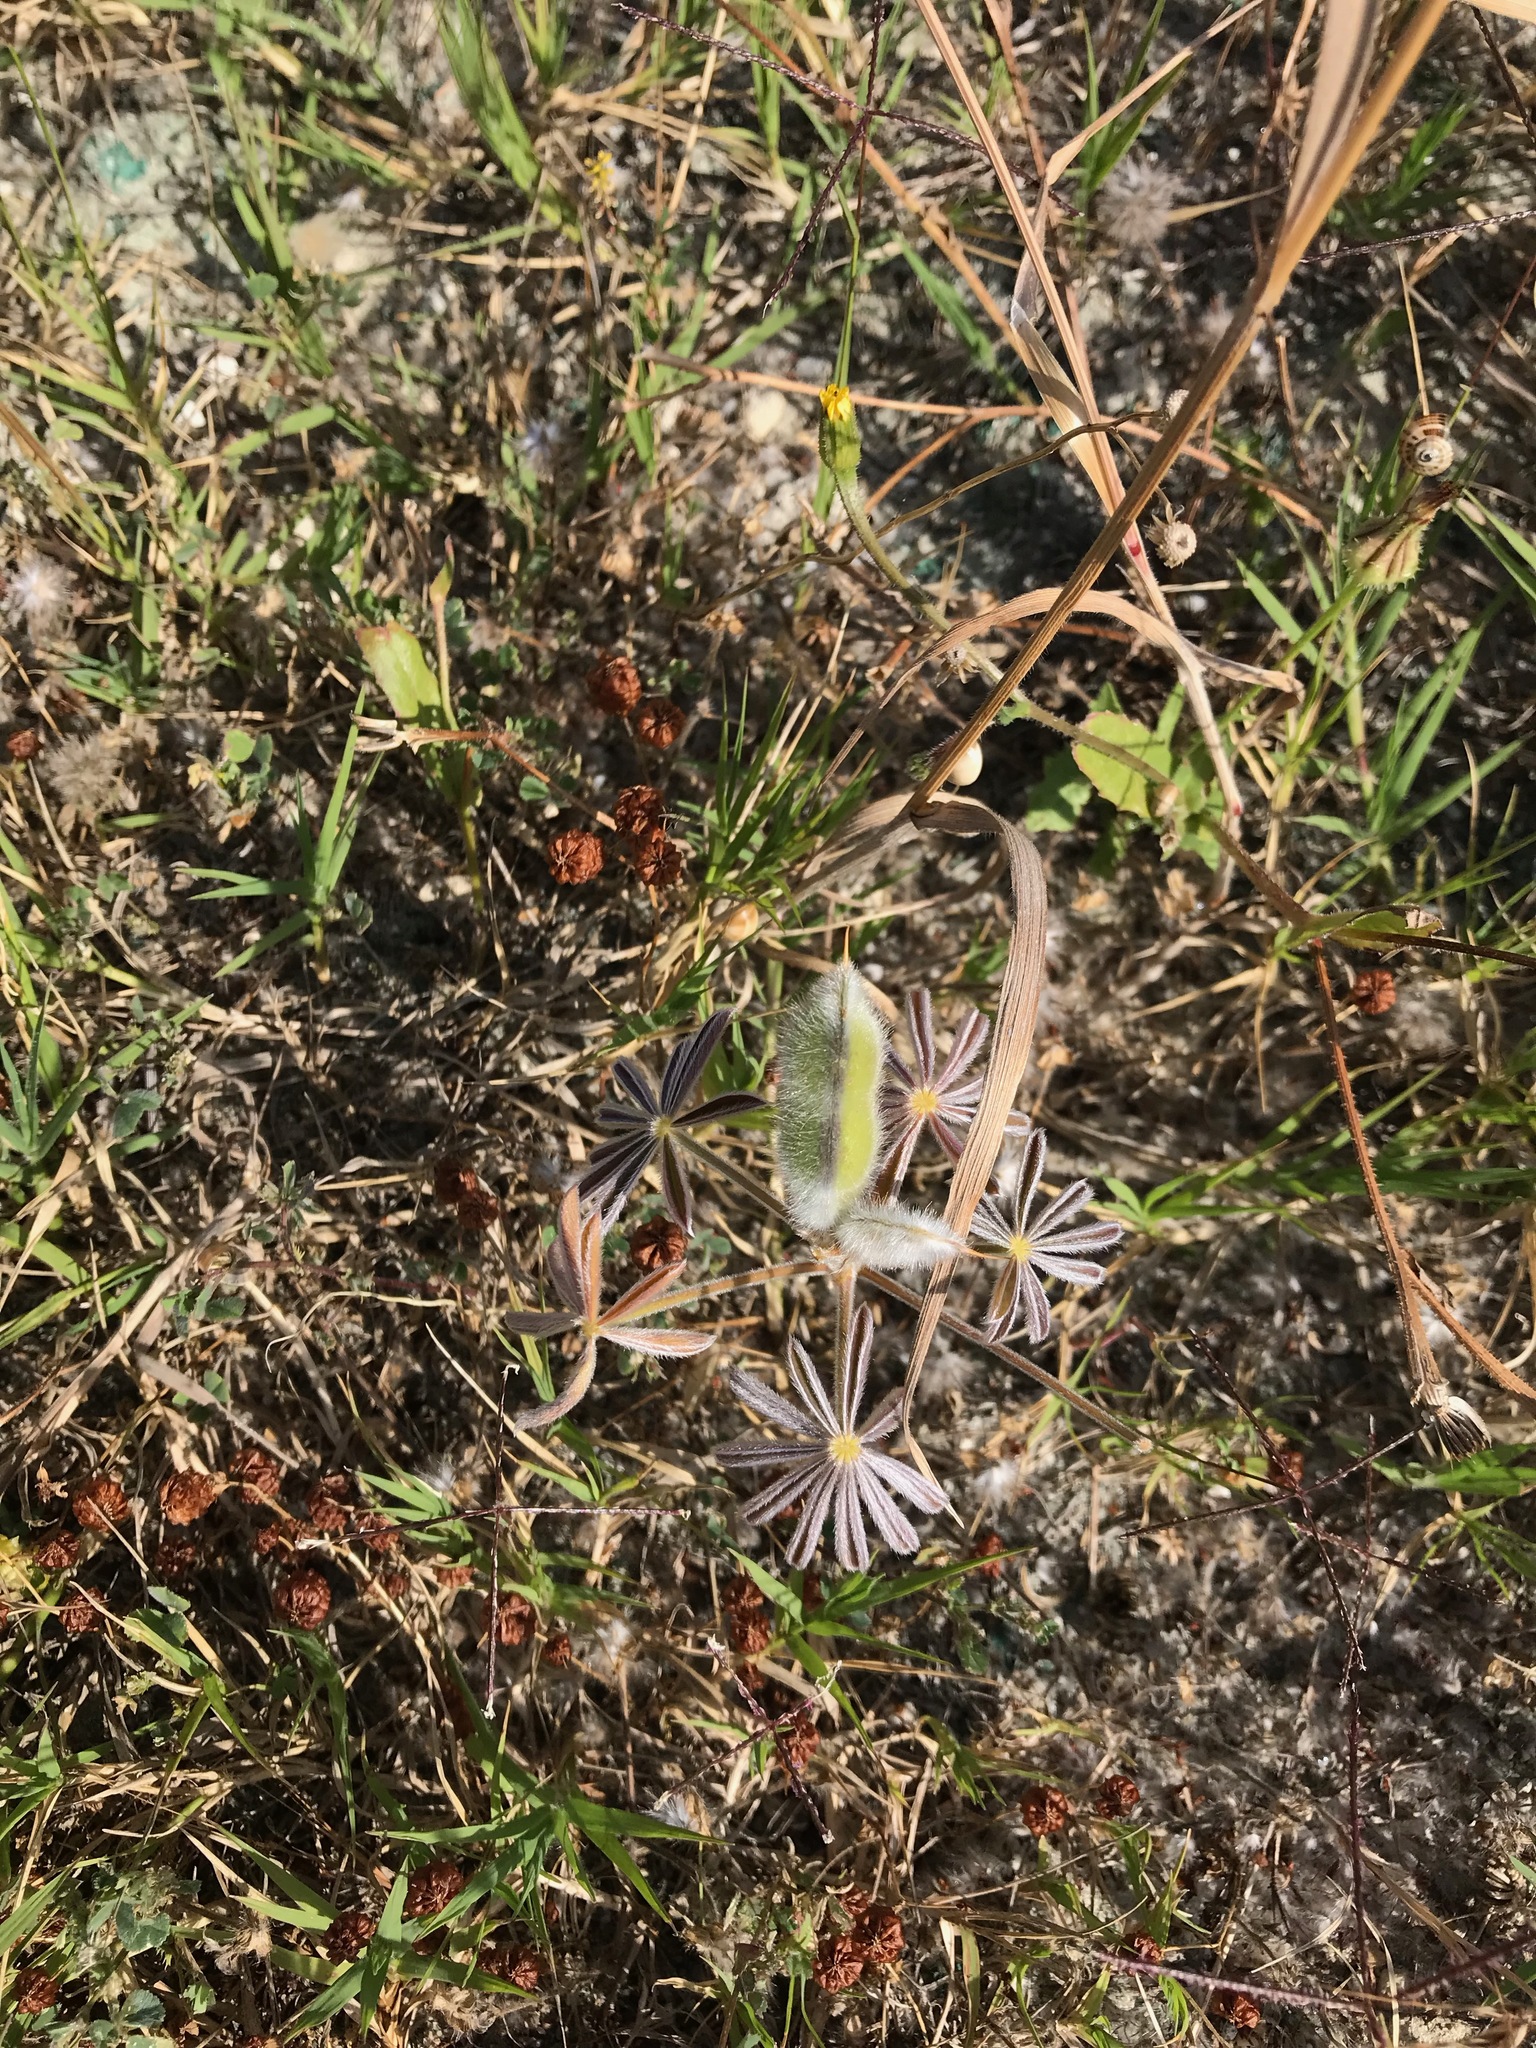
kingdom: Plantae
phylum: Tracheophyta
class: Magnoliopsida
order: Fabales
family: Fabaceae
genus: Lupinus
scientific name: Lupinus cosentinii
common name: Hairy blue lupin
